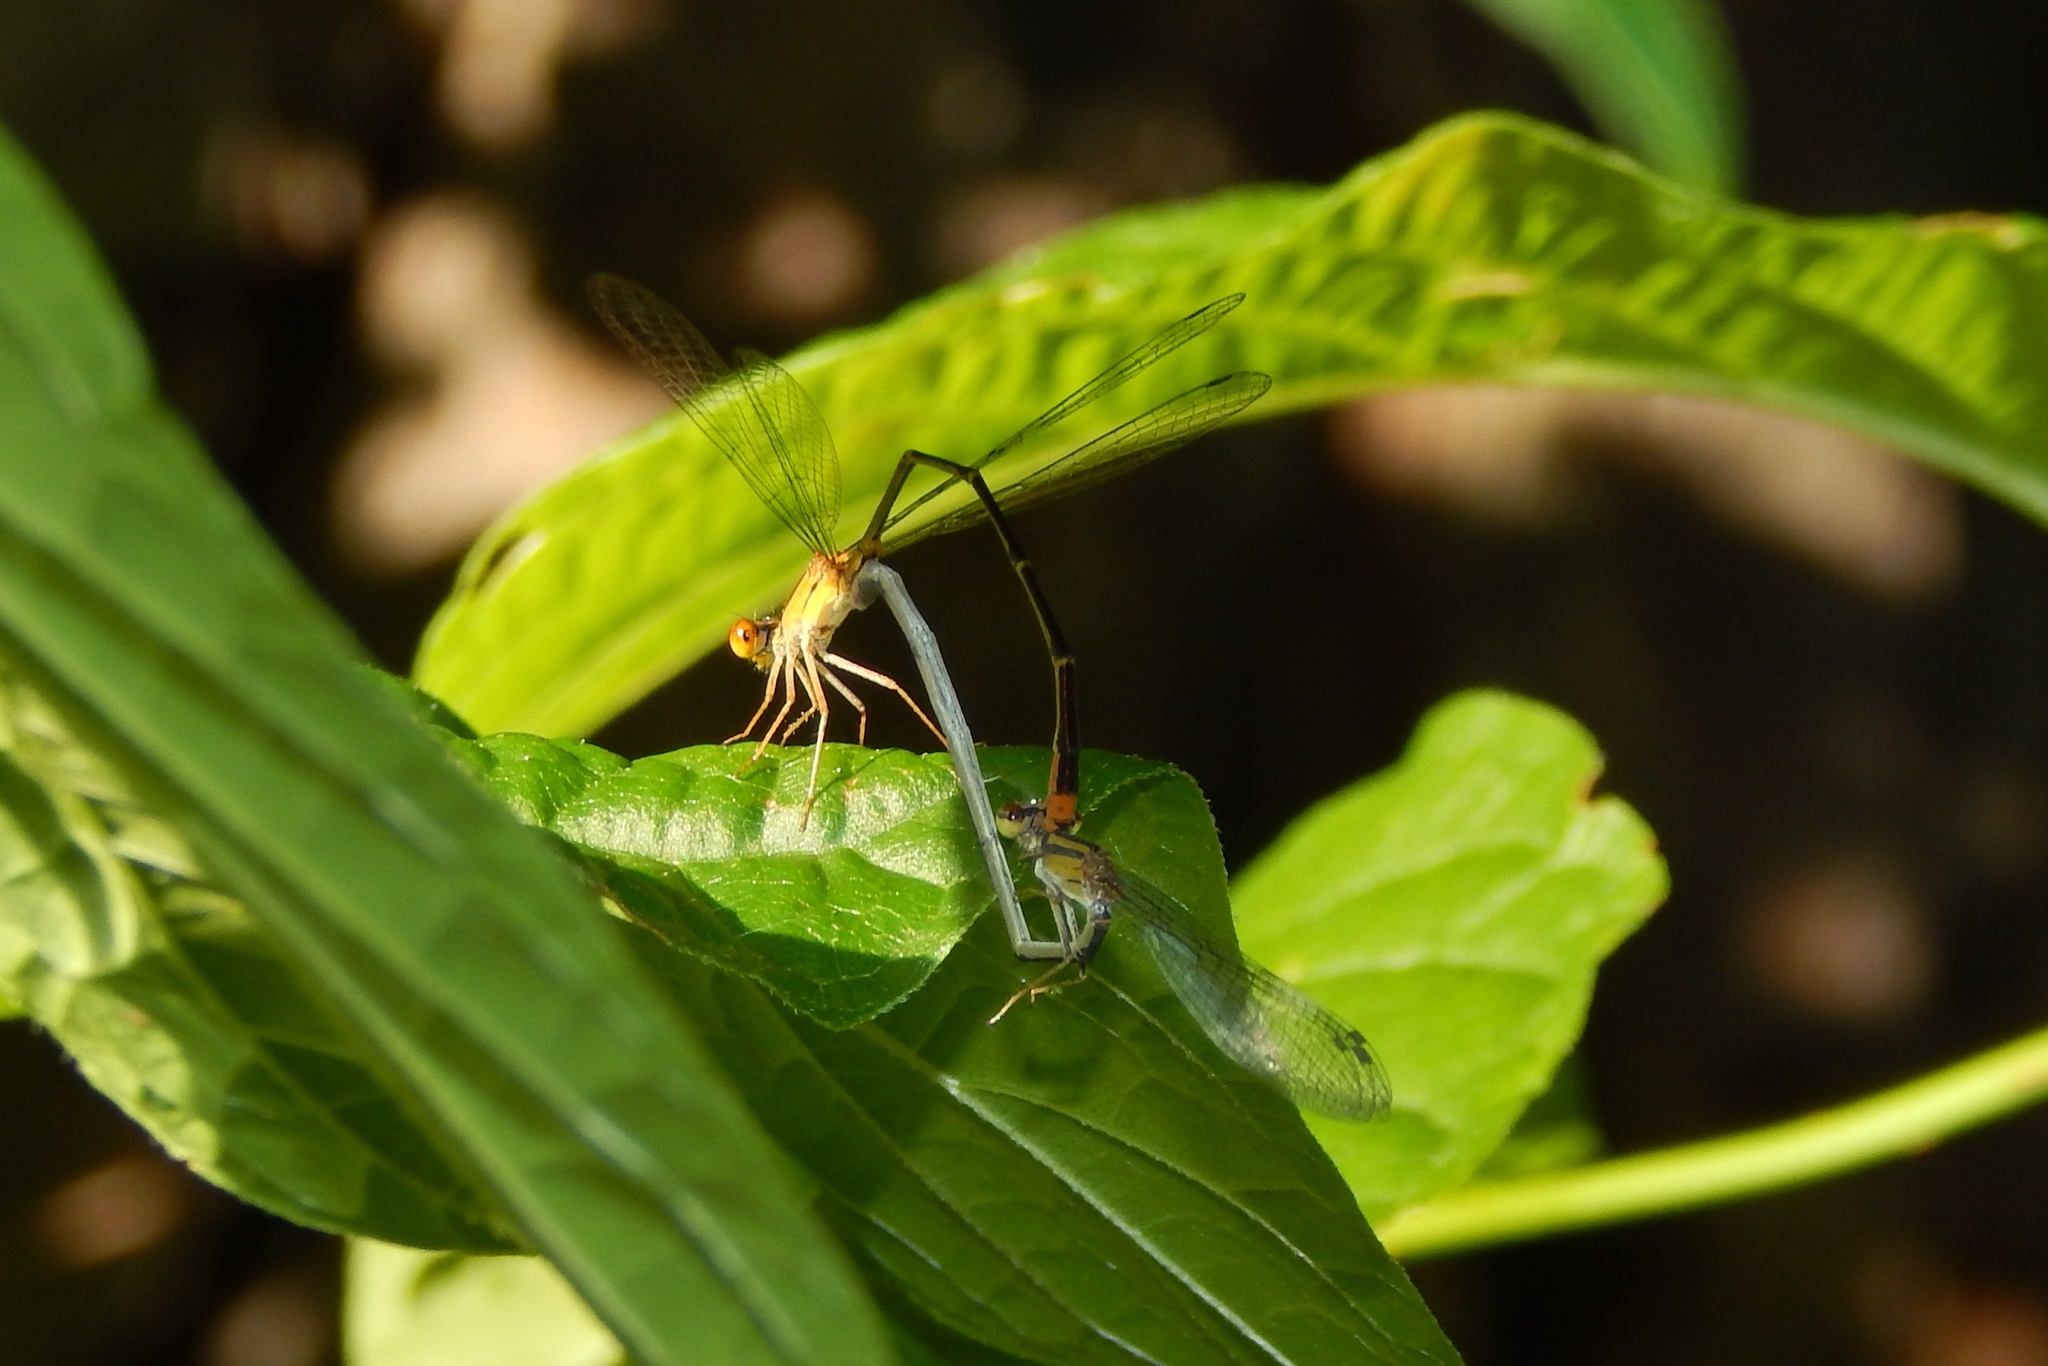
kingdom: Animalia
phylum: Arthropoda
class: Insecta
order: Odonata
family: Coenagrionidae
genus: Enallagma
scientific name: Enallagma signatum
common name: Orange bluet
